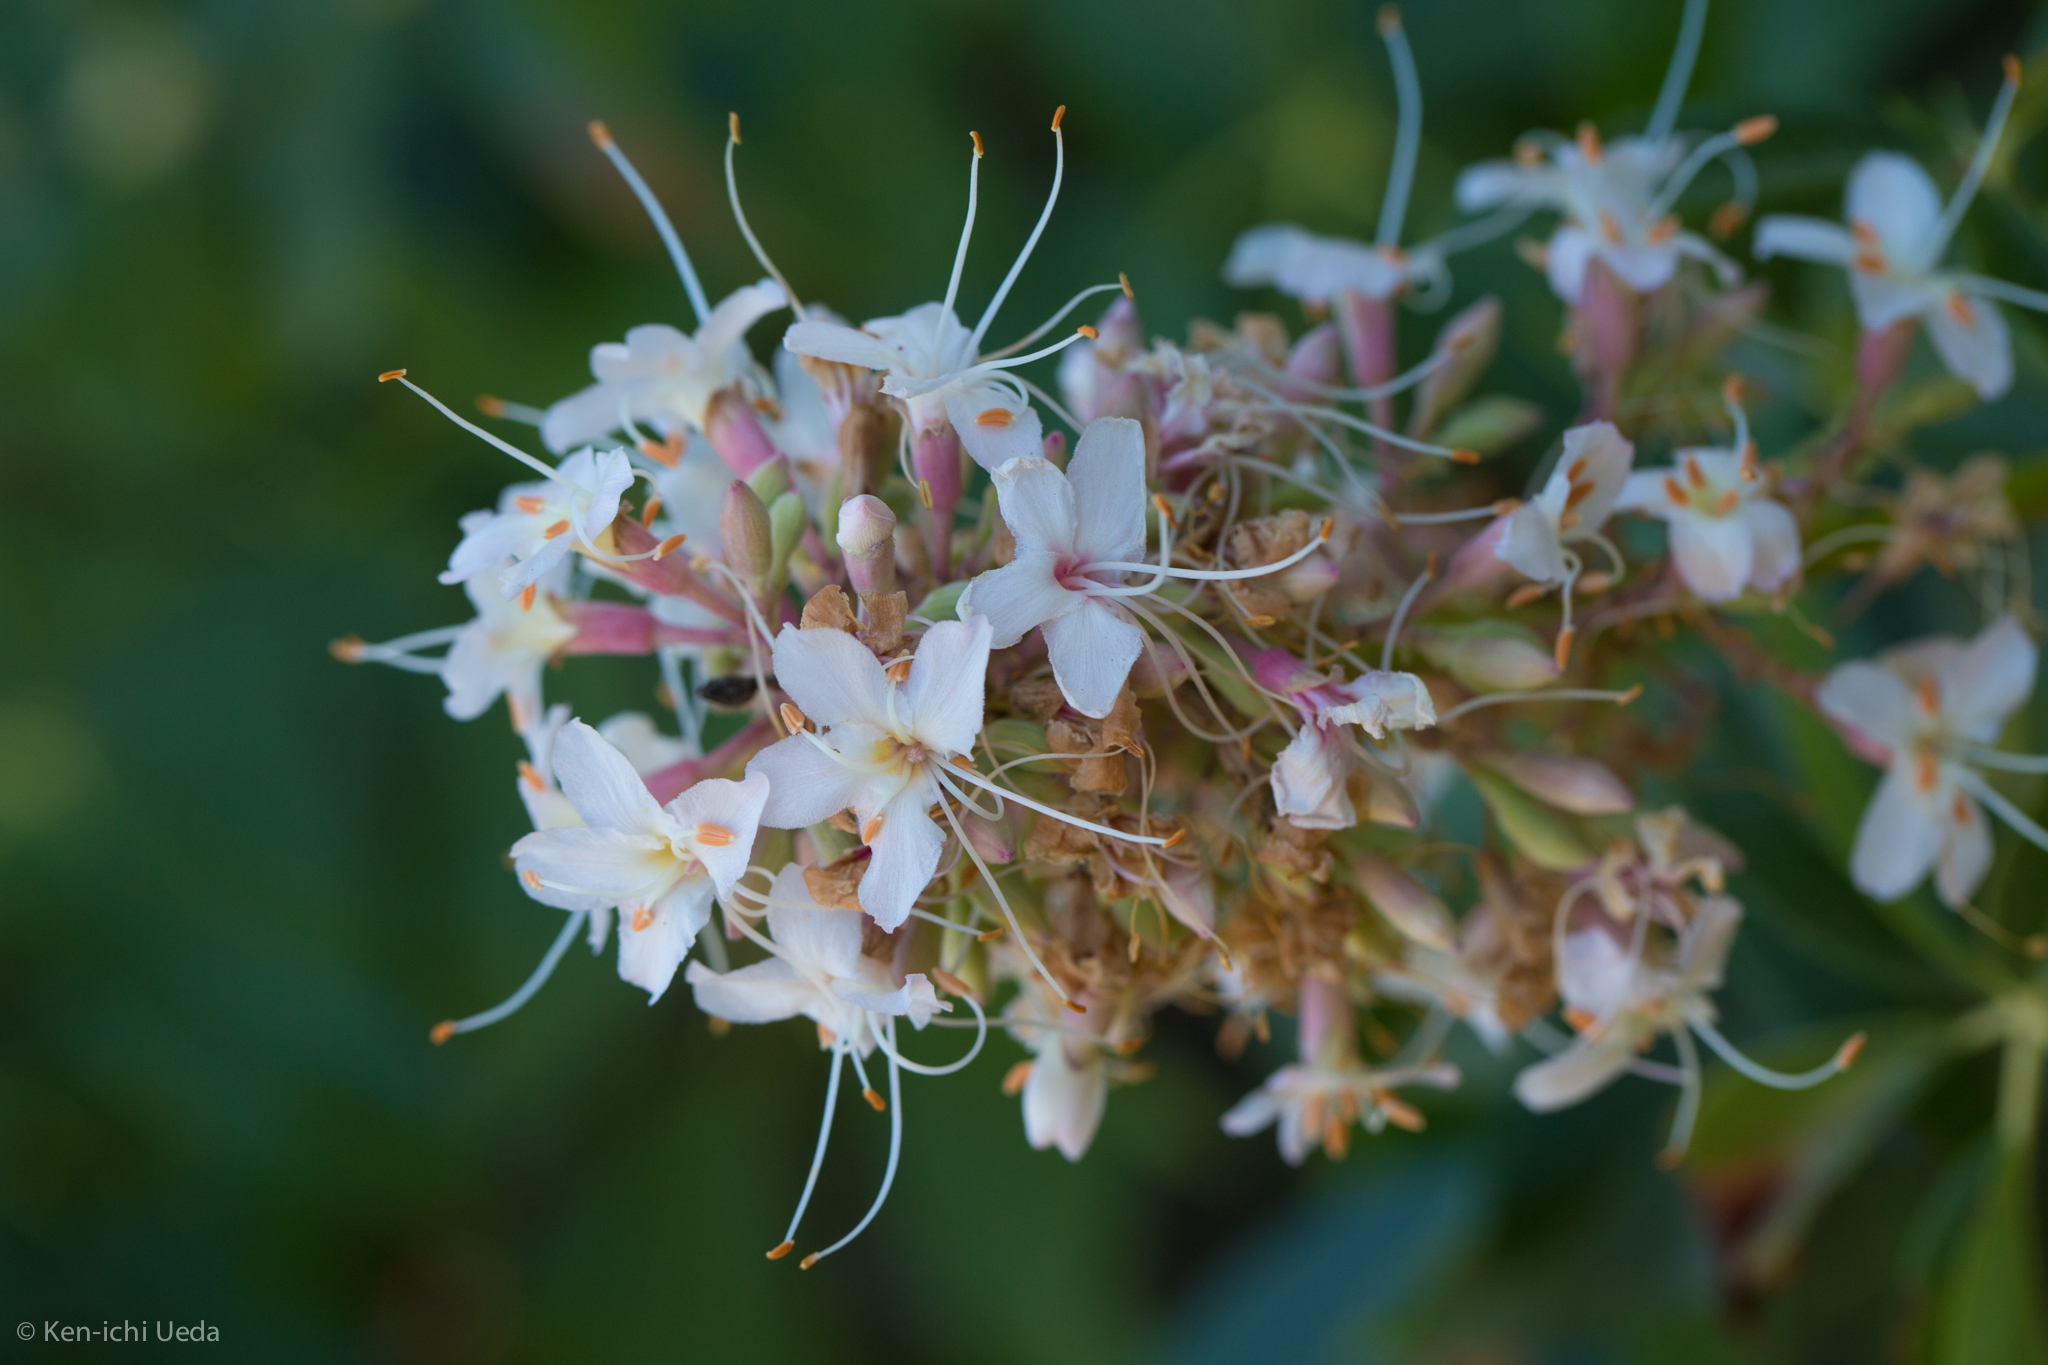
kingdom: Plantae
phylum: Tracheophyta
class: Magnoliopsida
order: Sapindales
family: Sapindaceae
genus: Aesculus
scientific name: Aesculus californica
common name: California buckeye
